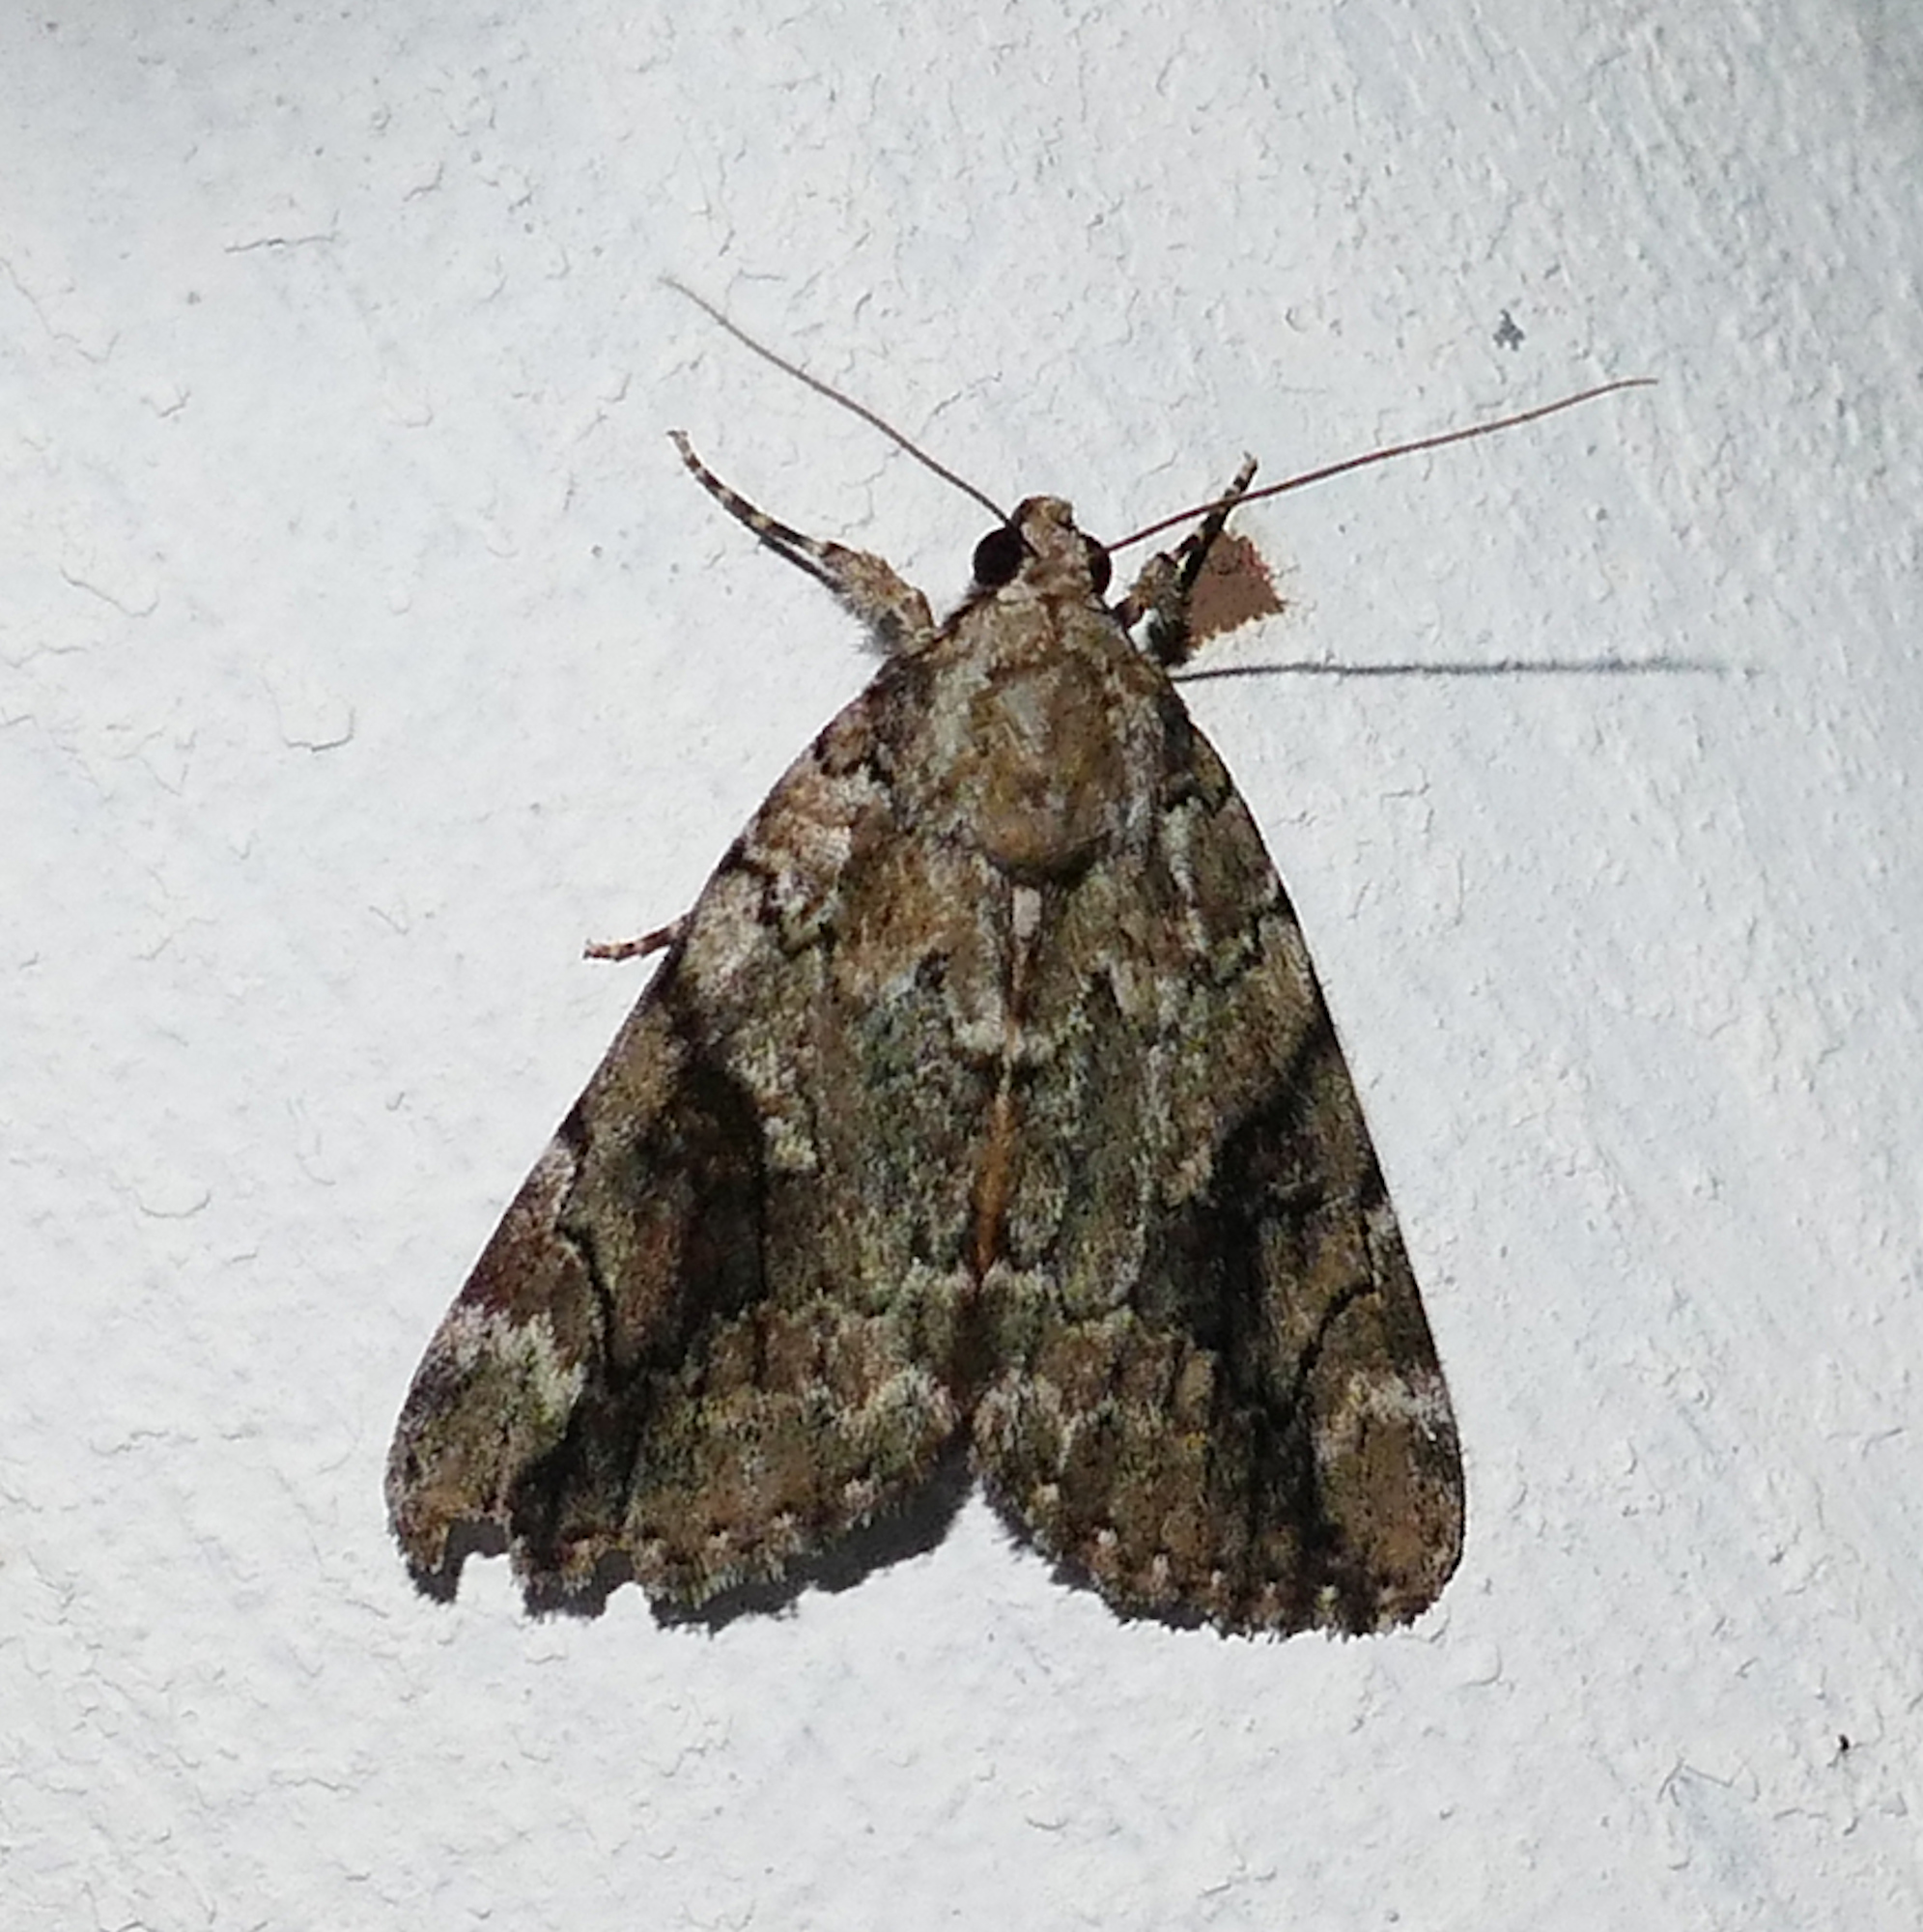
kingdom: Animalia
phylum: Arthropoda
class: Insecta
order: Lepidoptera
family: Erebidae
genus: Catocala
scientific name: Catocala micronympha
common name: Little nymph underwing
